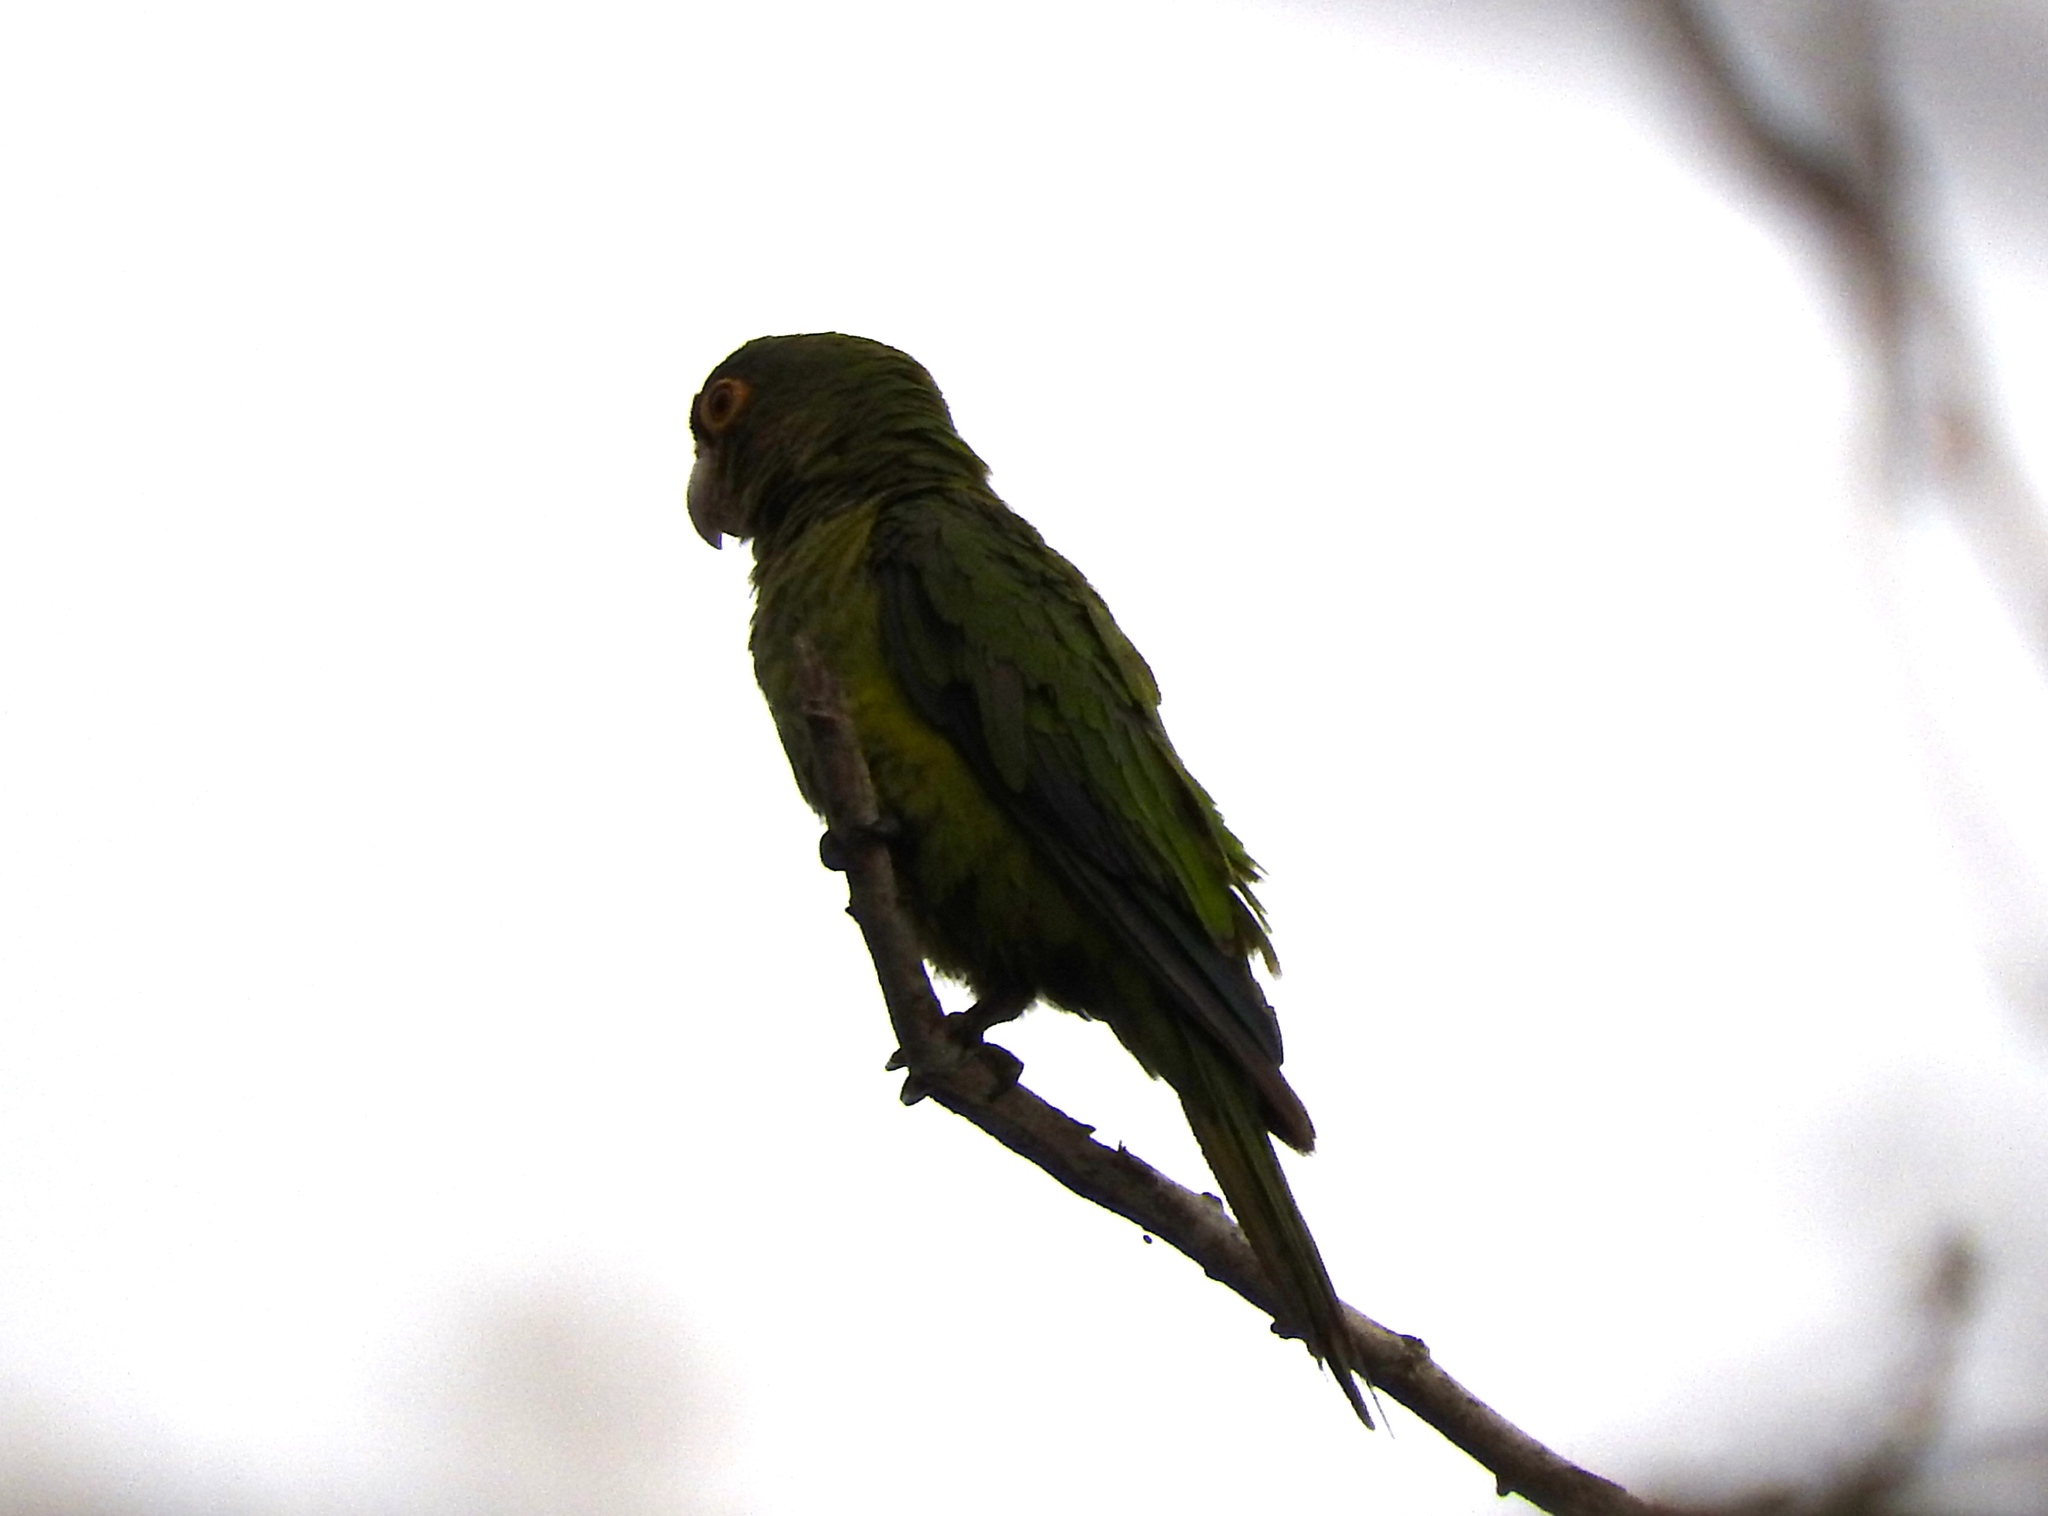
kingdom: Animalia
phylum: Chordata
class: Aves
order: Psittaciformes
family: Psittacidae
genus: Aratinga
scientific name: Aratinga canicularis
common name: Orange-fronted parakeet
